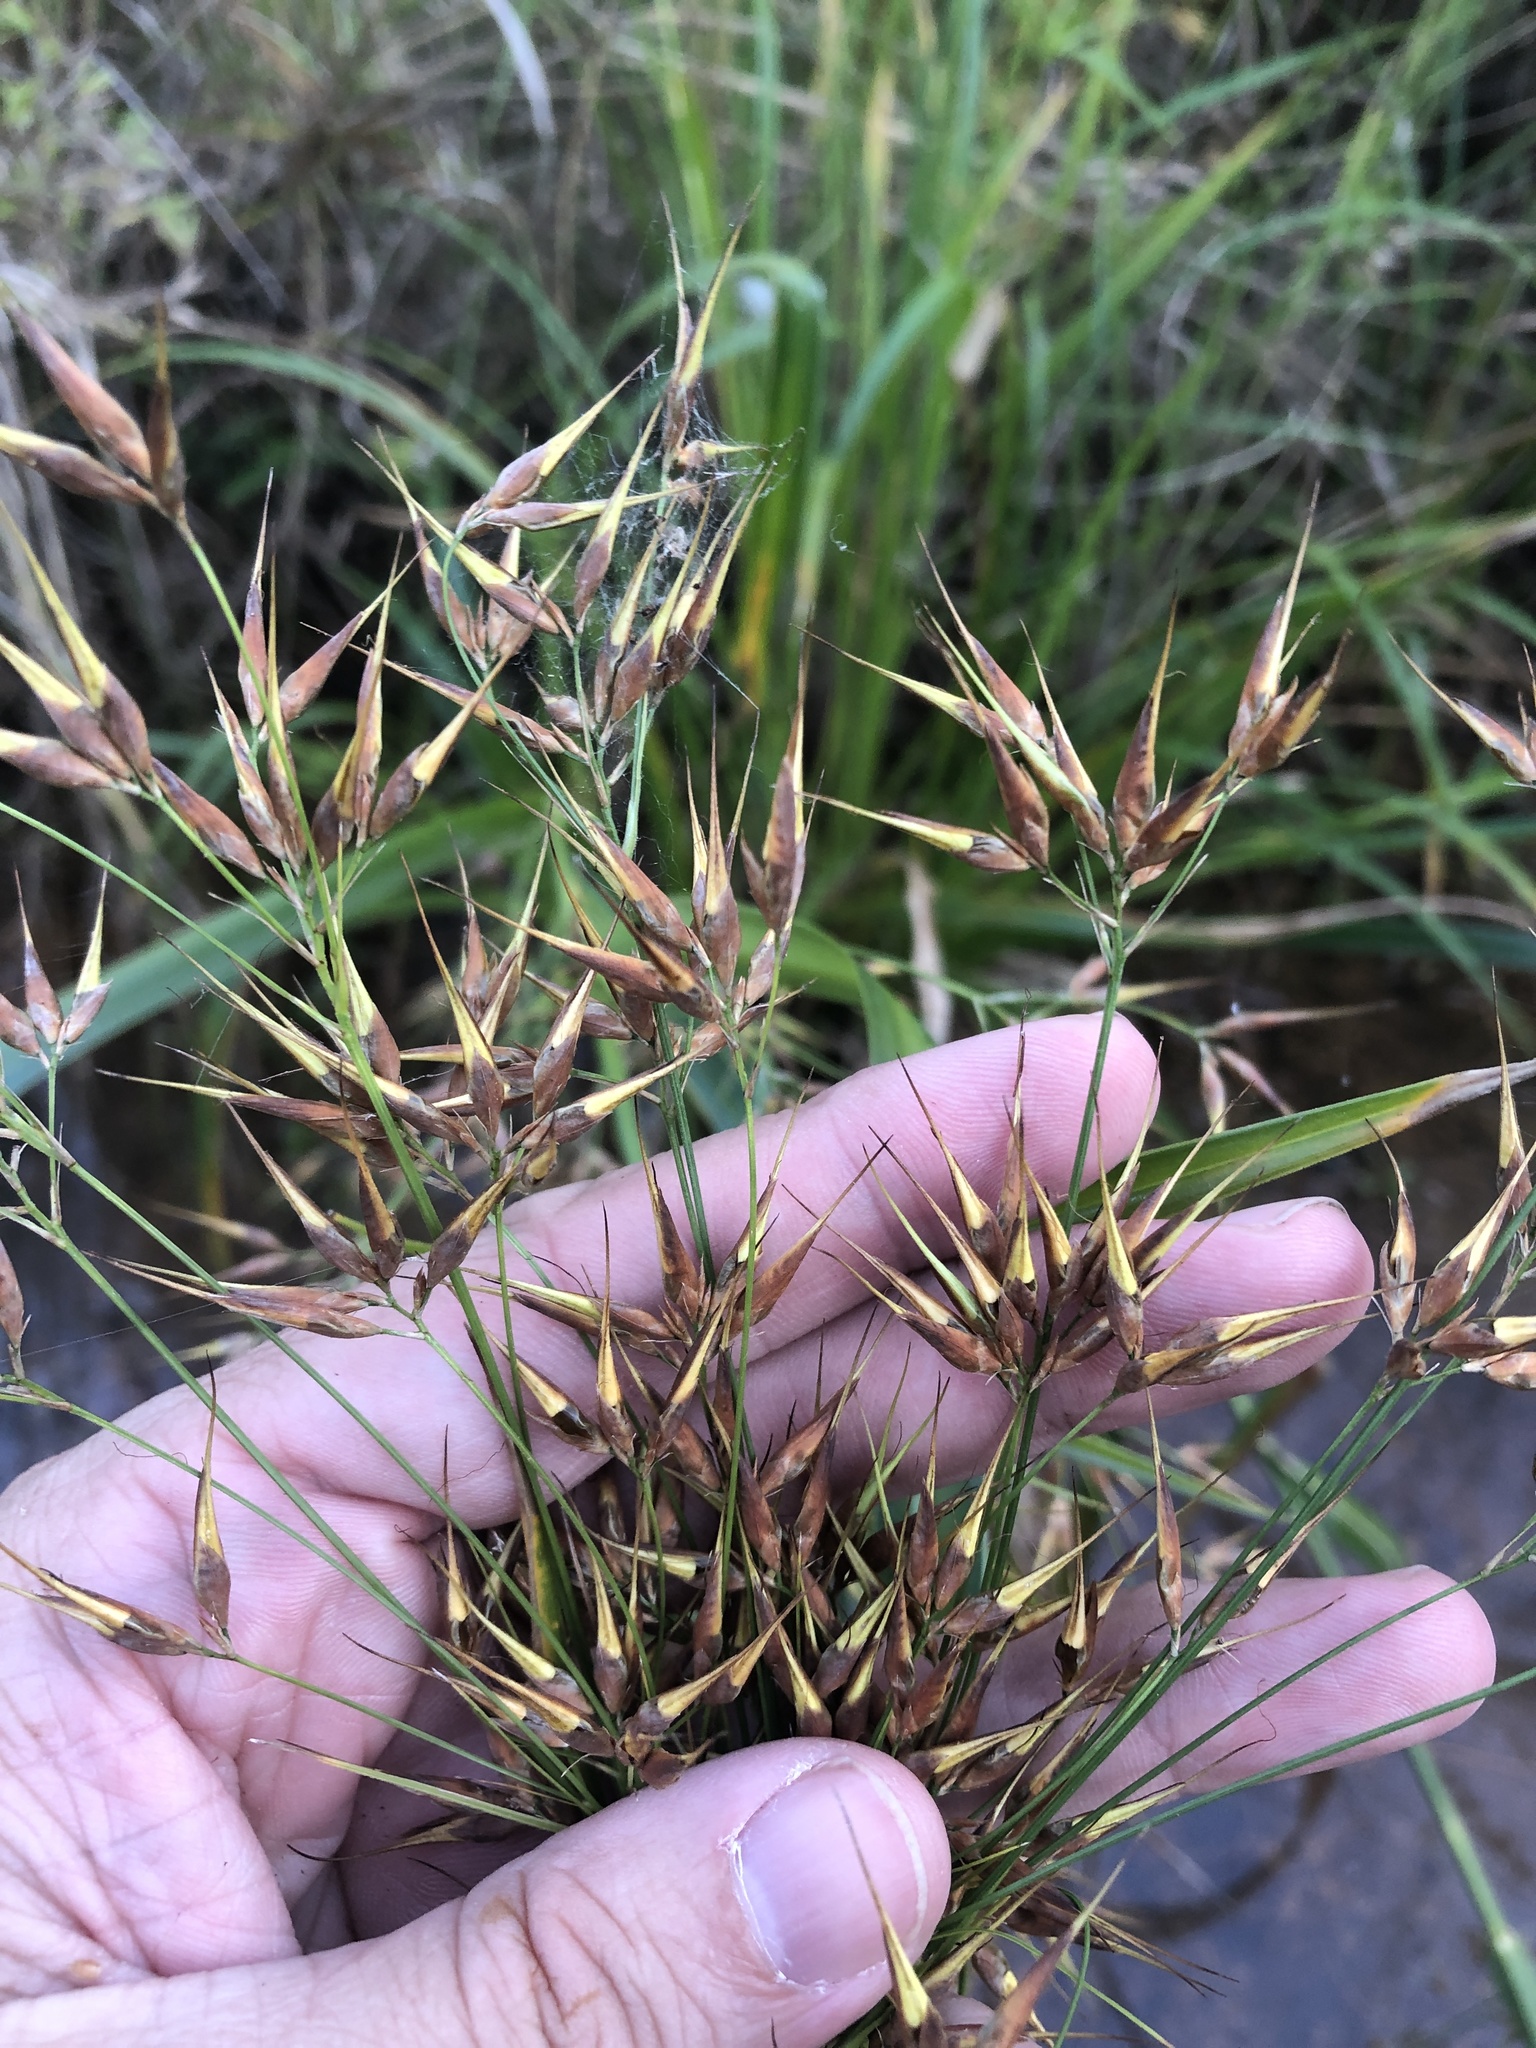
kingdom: Plantae
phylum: Tracheophyta
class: Liliopsida
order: Poales
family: Cyperaceae
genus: Rhynchospora
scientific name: Rhynchospora corniculata
